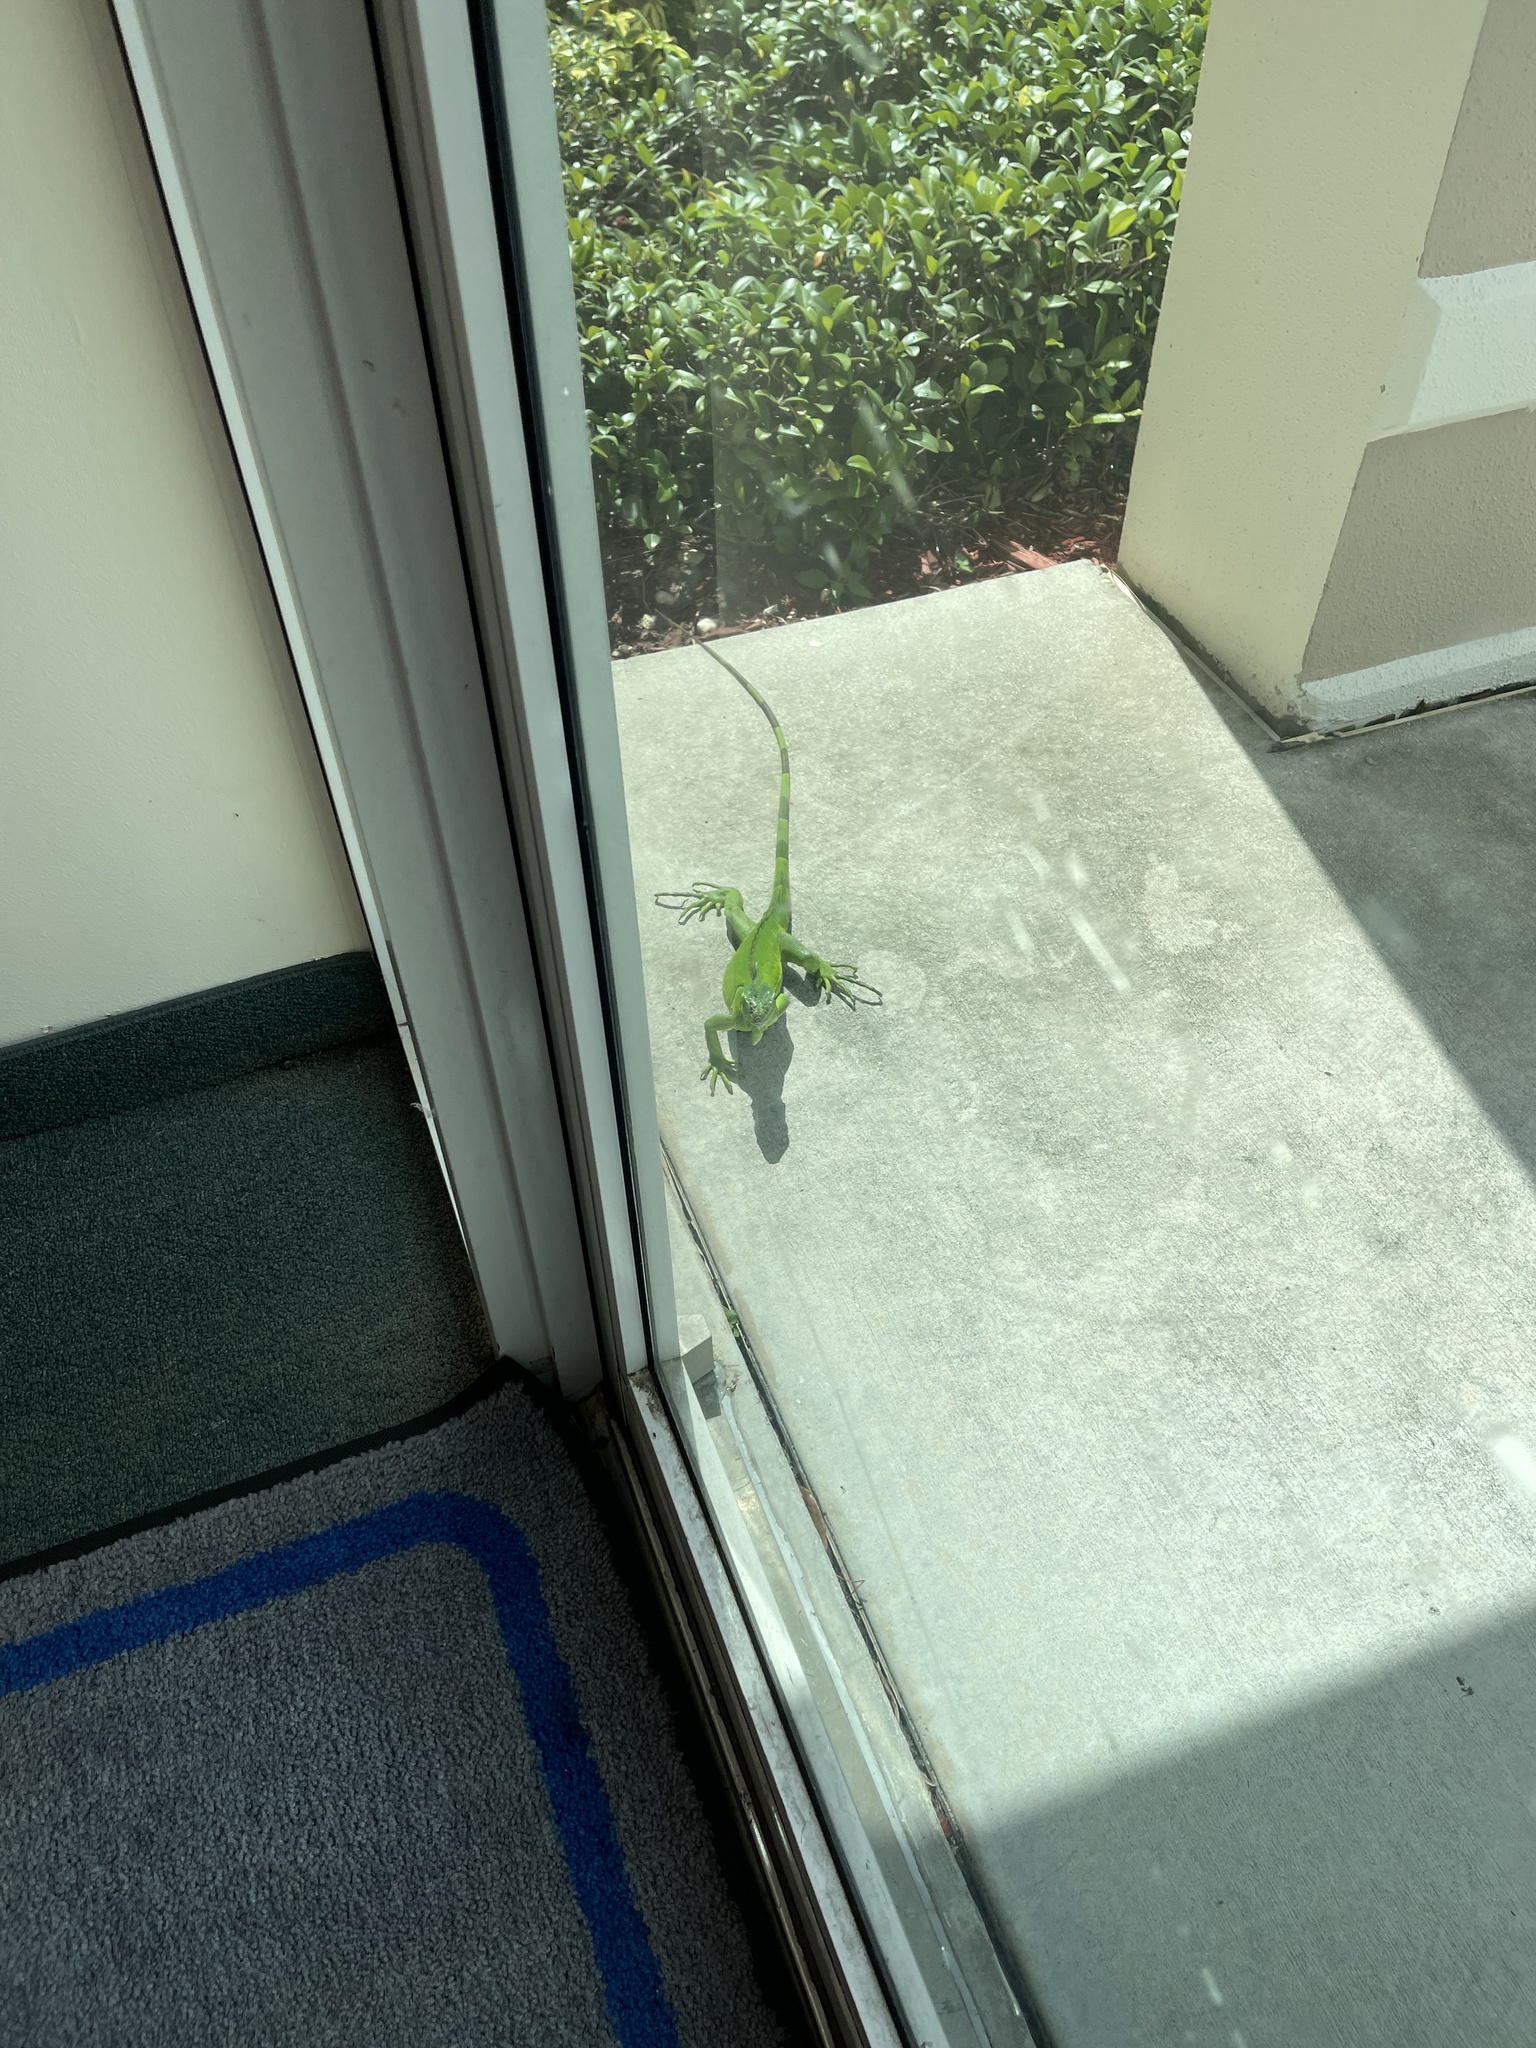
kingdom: Animalia
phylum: Chordata
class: Squamata
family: Iguanidae
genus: Iguana
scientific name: Iguana iguana
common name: Green iguana
